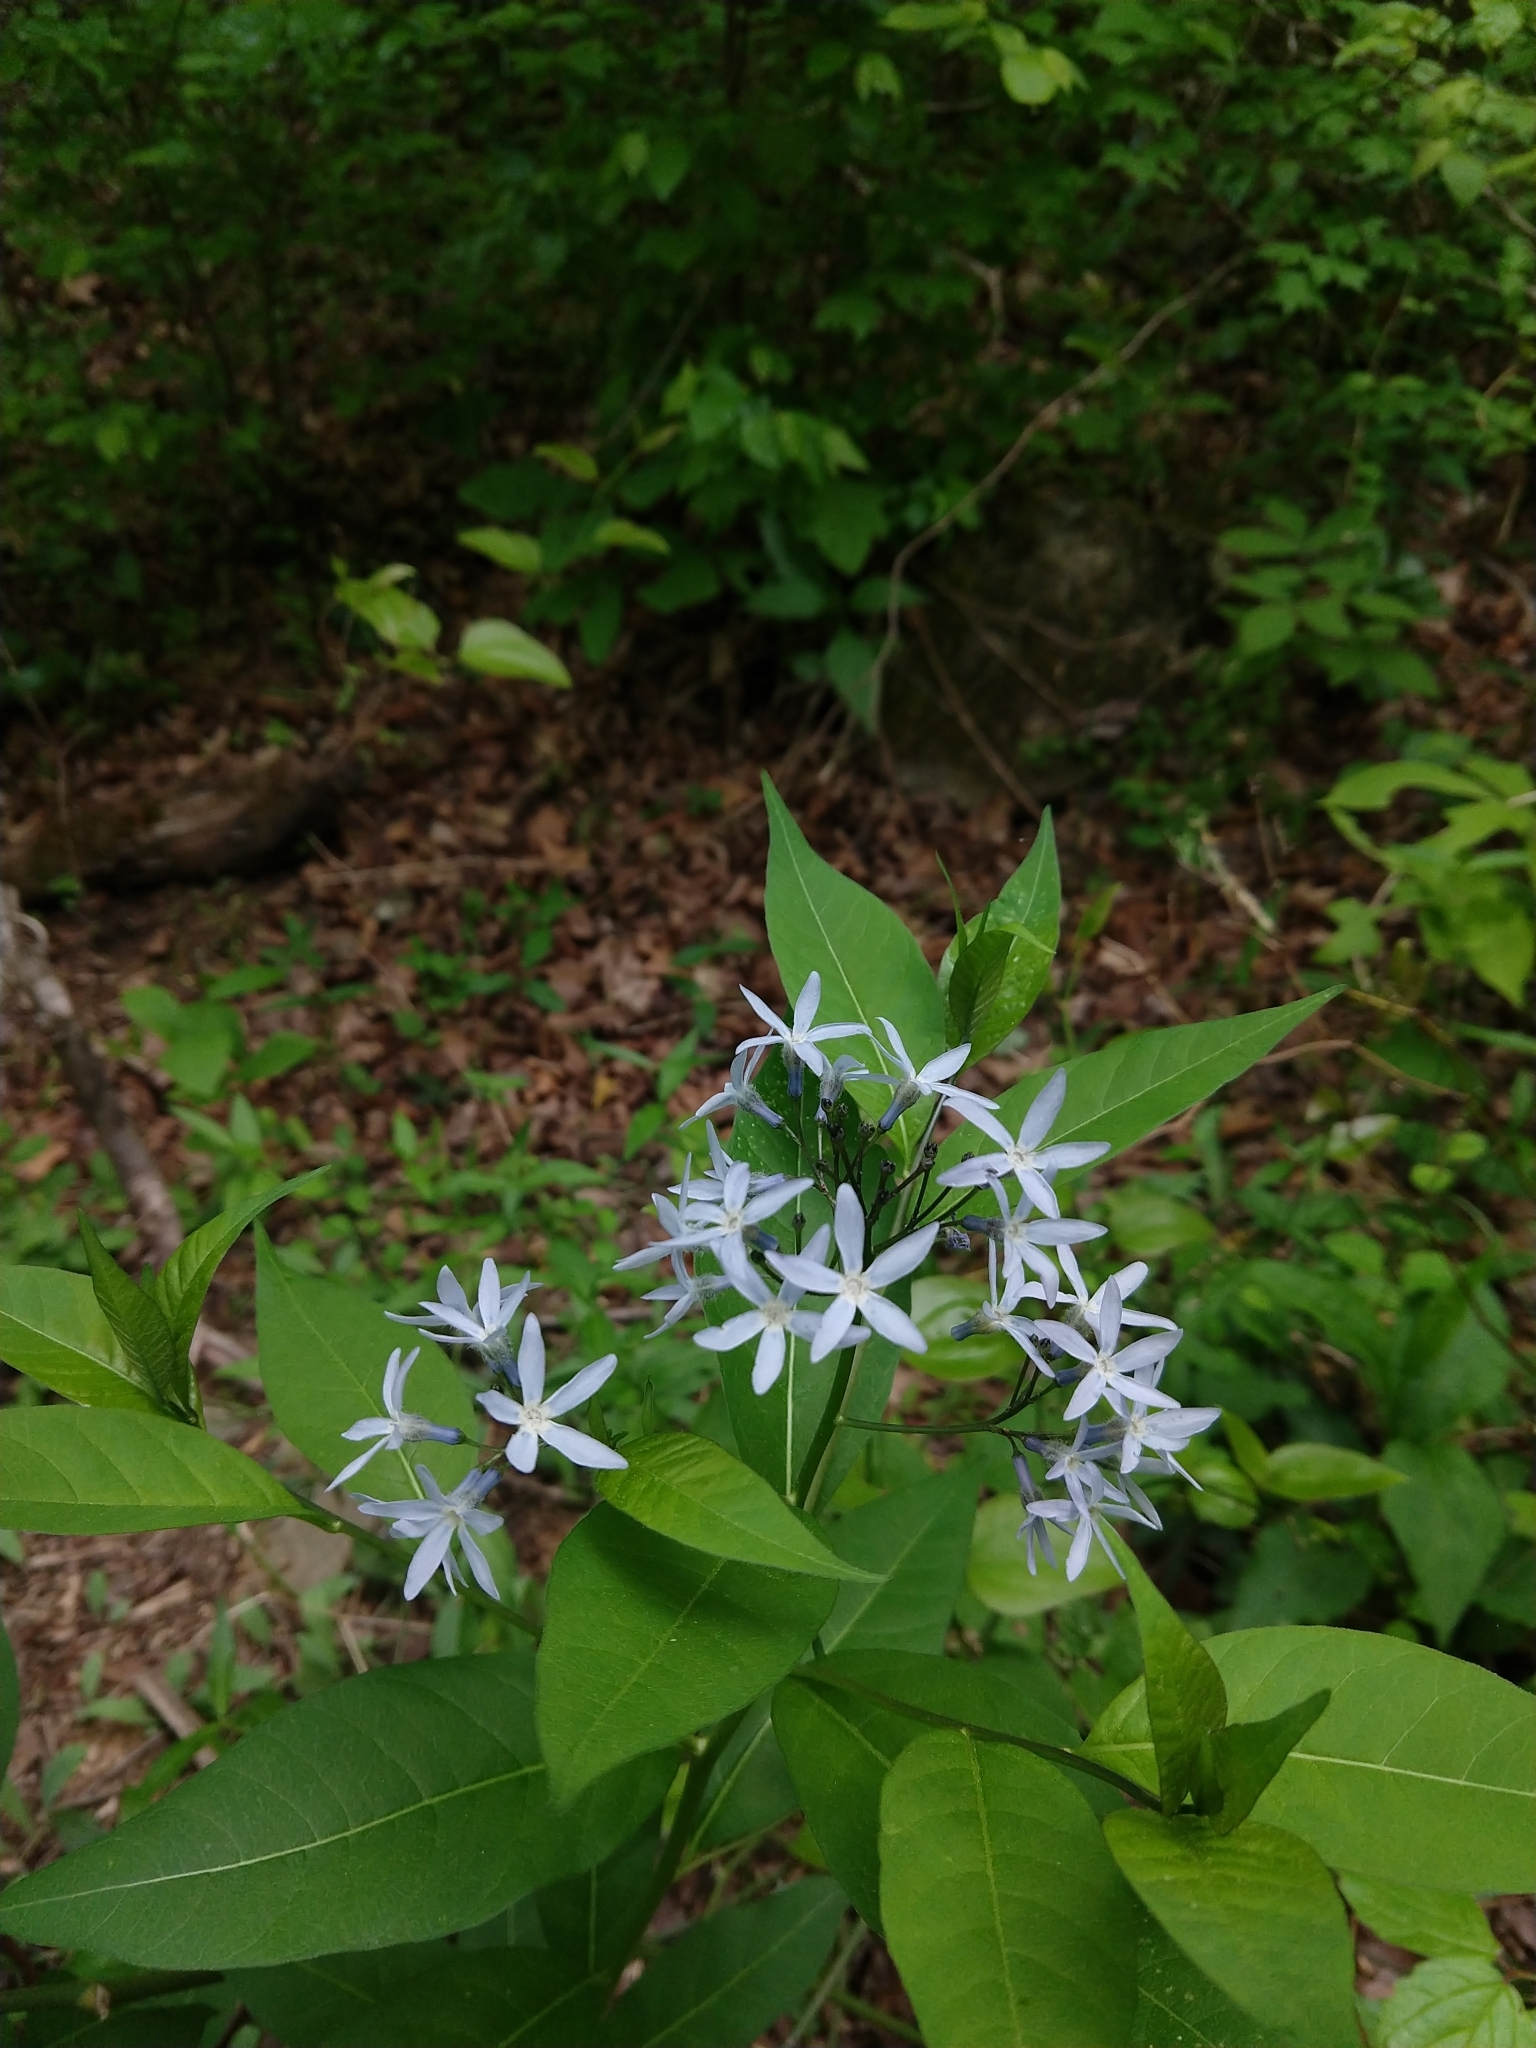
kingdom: Plantae
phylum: Tracheophyta
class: Magnoliopsida
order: Gentianales
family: Apocynaceae
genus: Amsonia
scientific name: Amsonia tabernaemontana
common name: Texas-star
